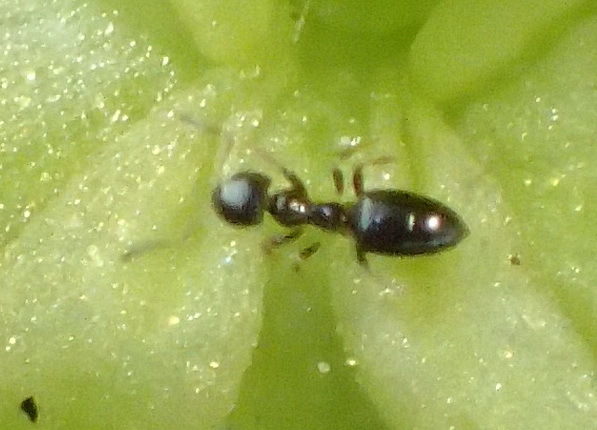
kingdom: Animalia
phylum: Arthropoda
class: Insecta
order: Hymenoptera
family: Formicidae
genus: Tapinoma
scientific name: Tapinoma pallipes
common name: Ant
